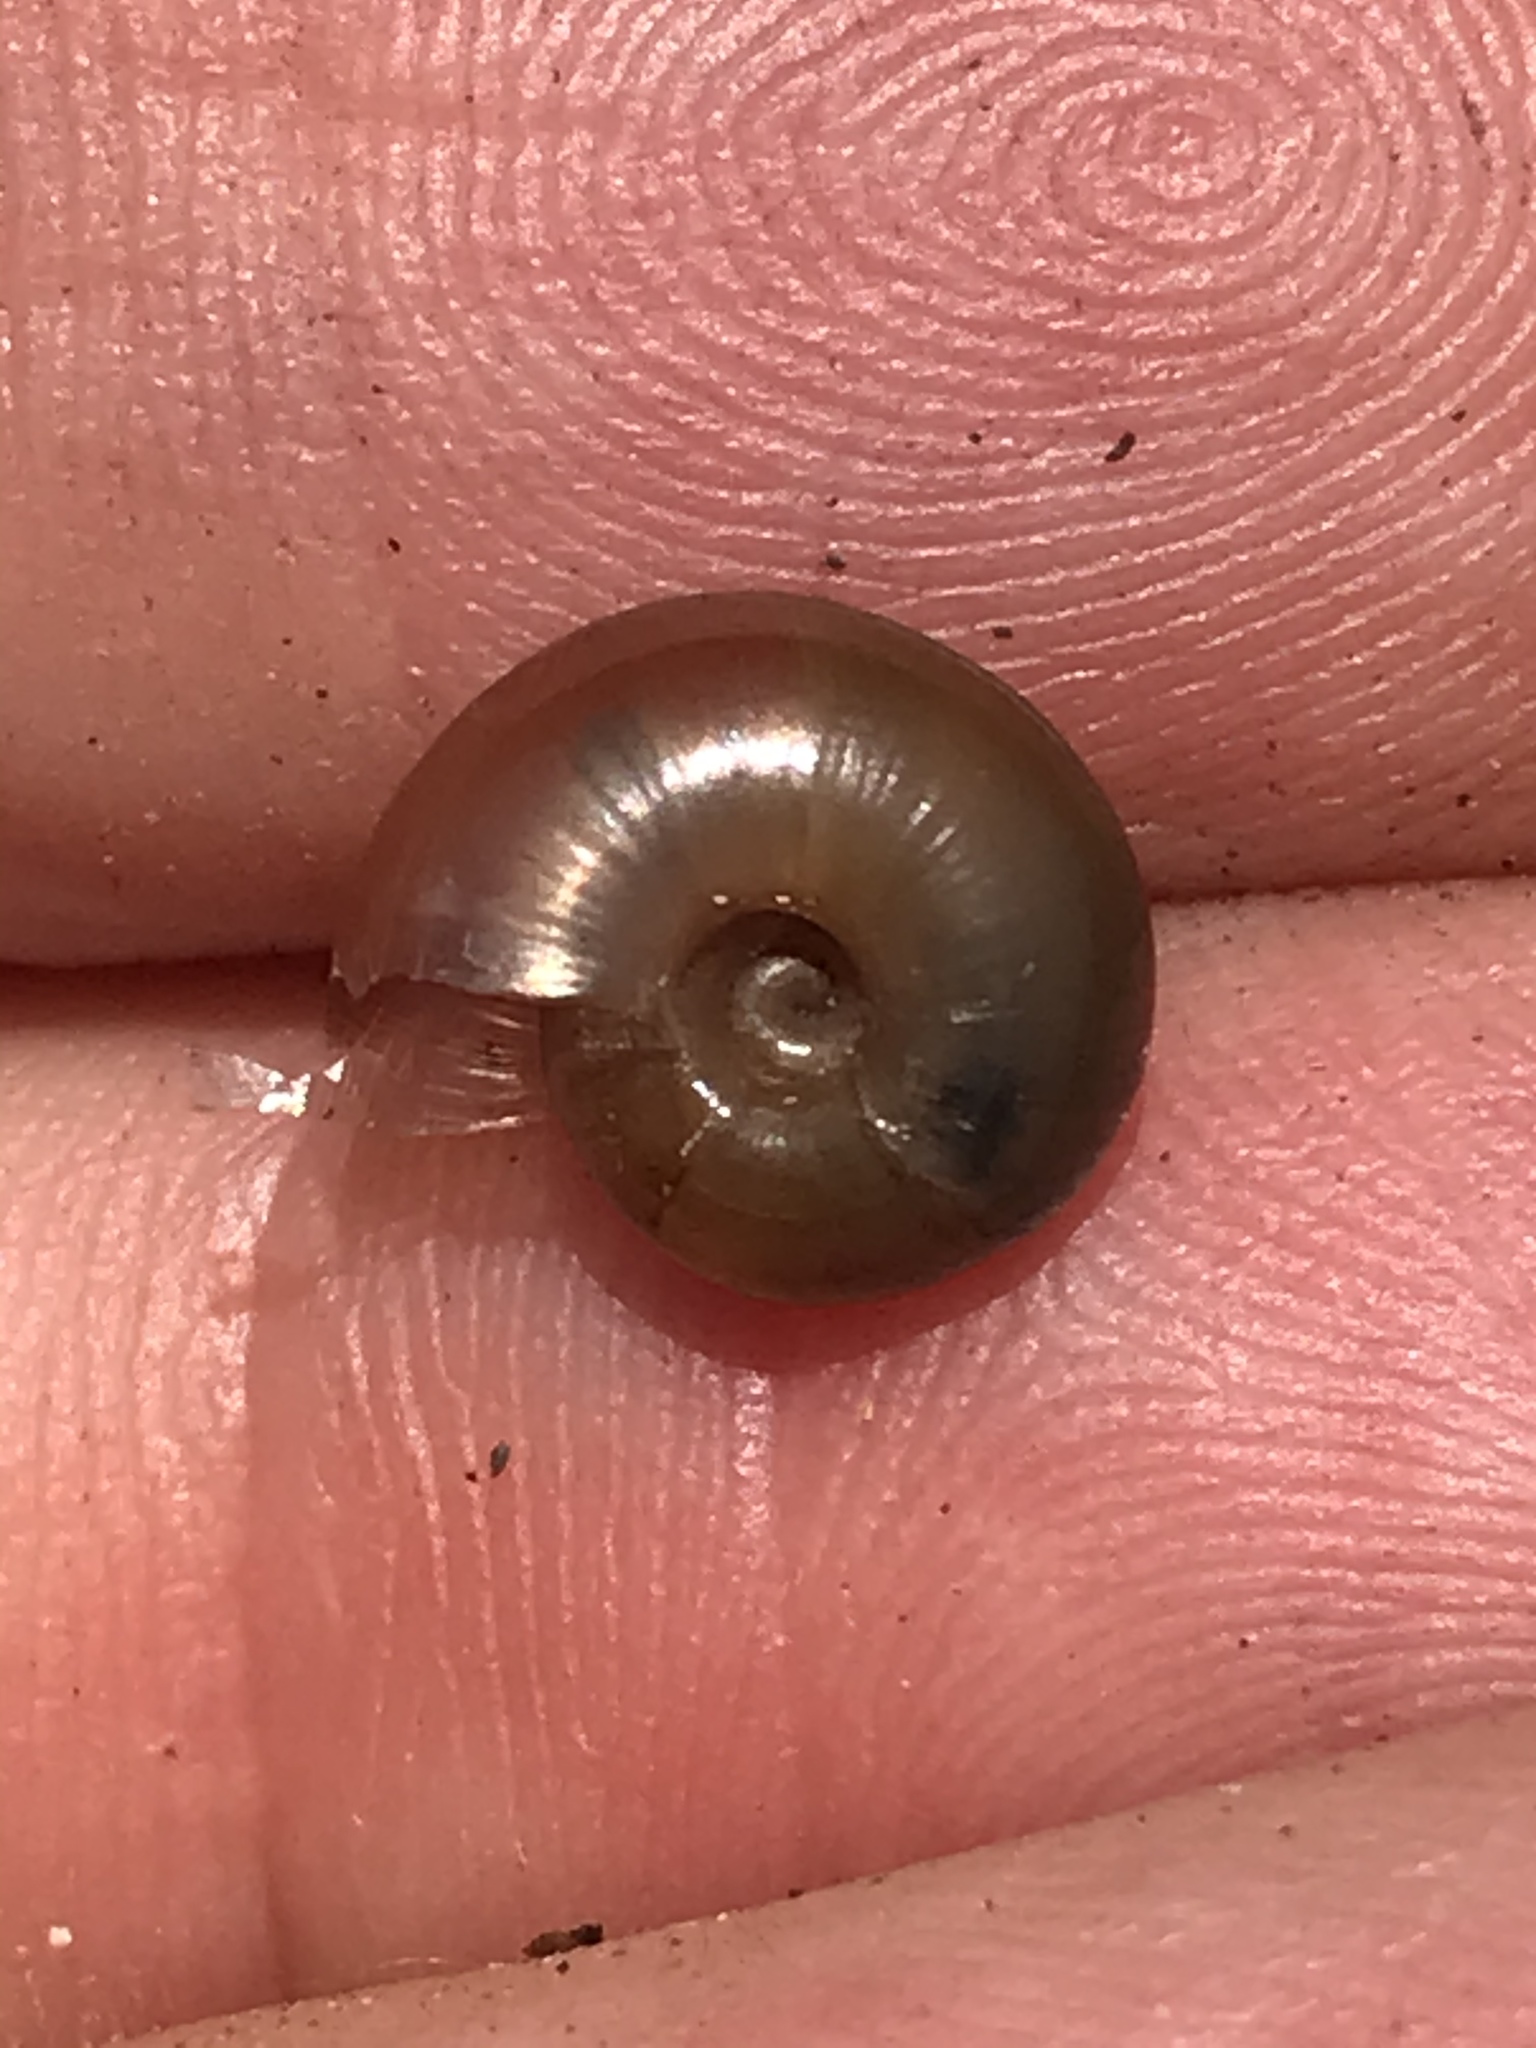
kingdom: Animalia
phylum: Mollusca
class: Gastropoda
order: Stylommatophora
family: Megomphicidae
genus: Glyptostoma
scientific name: Glyptostoma gabrielense
